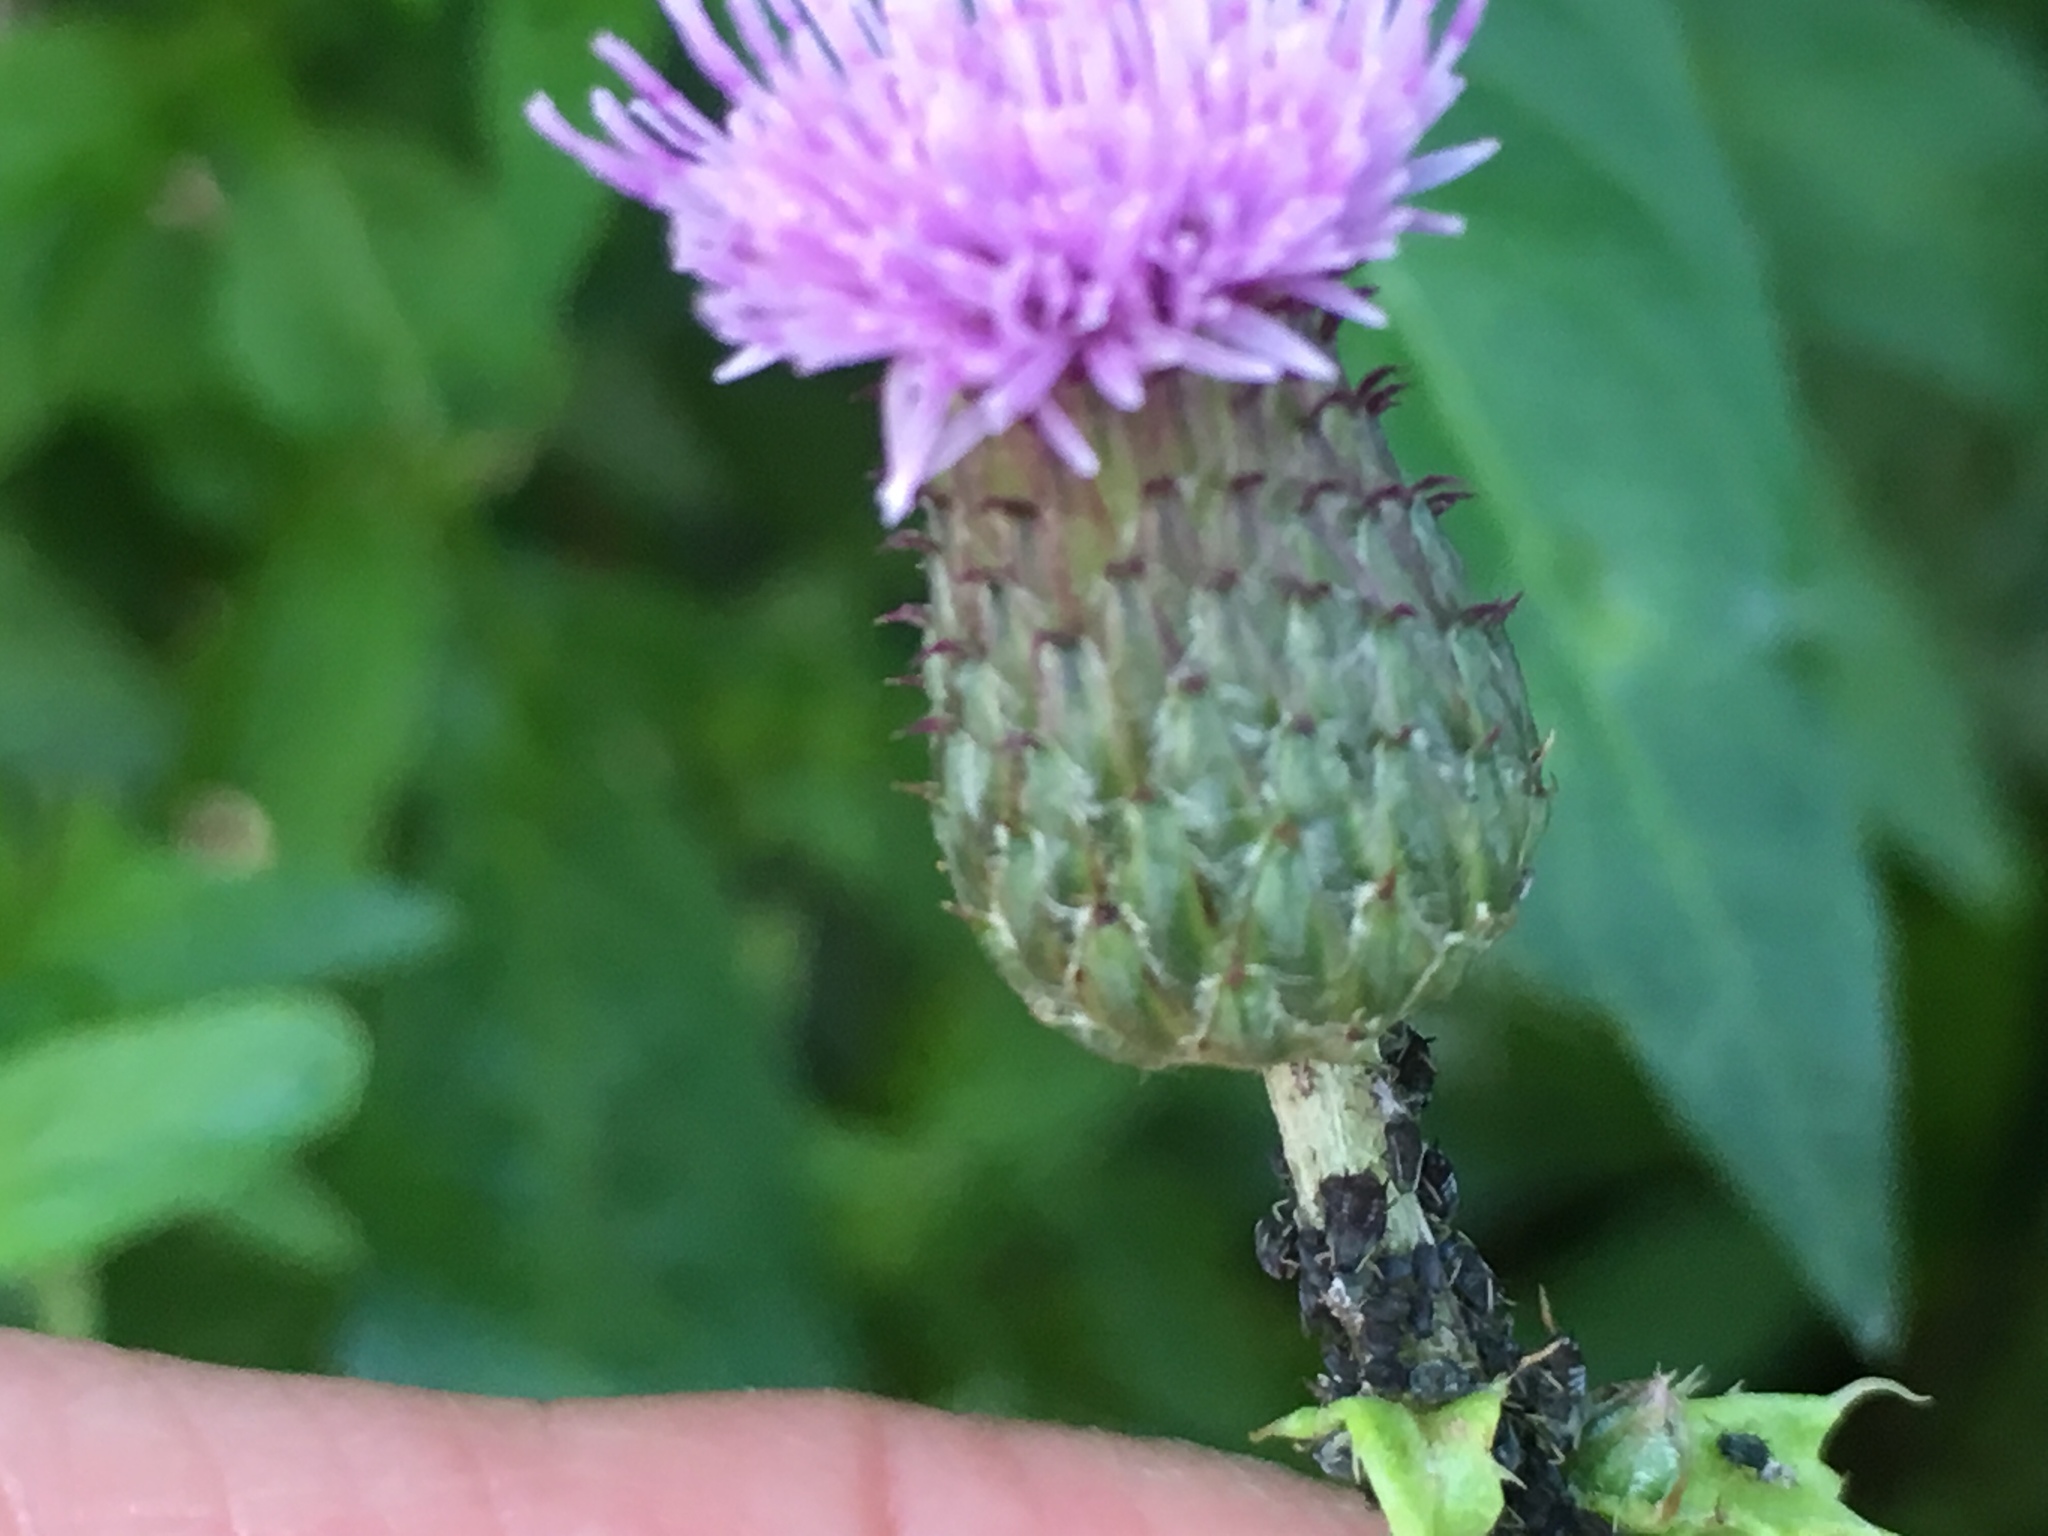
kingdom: Plantae
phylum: Tracheophyta
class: Magnoliopsida
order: Asterales
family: Asteraceae
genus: Cirsium
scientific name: Cirsium arvense
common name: Creeping thistle
